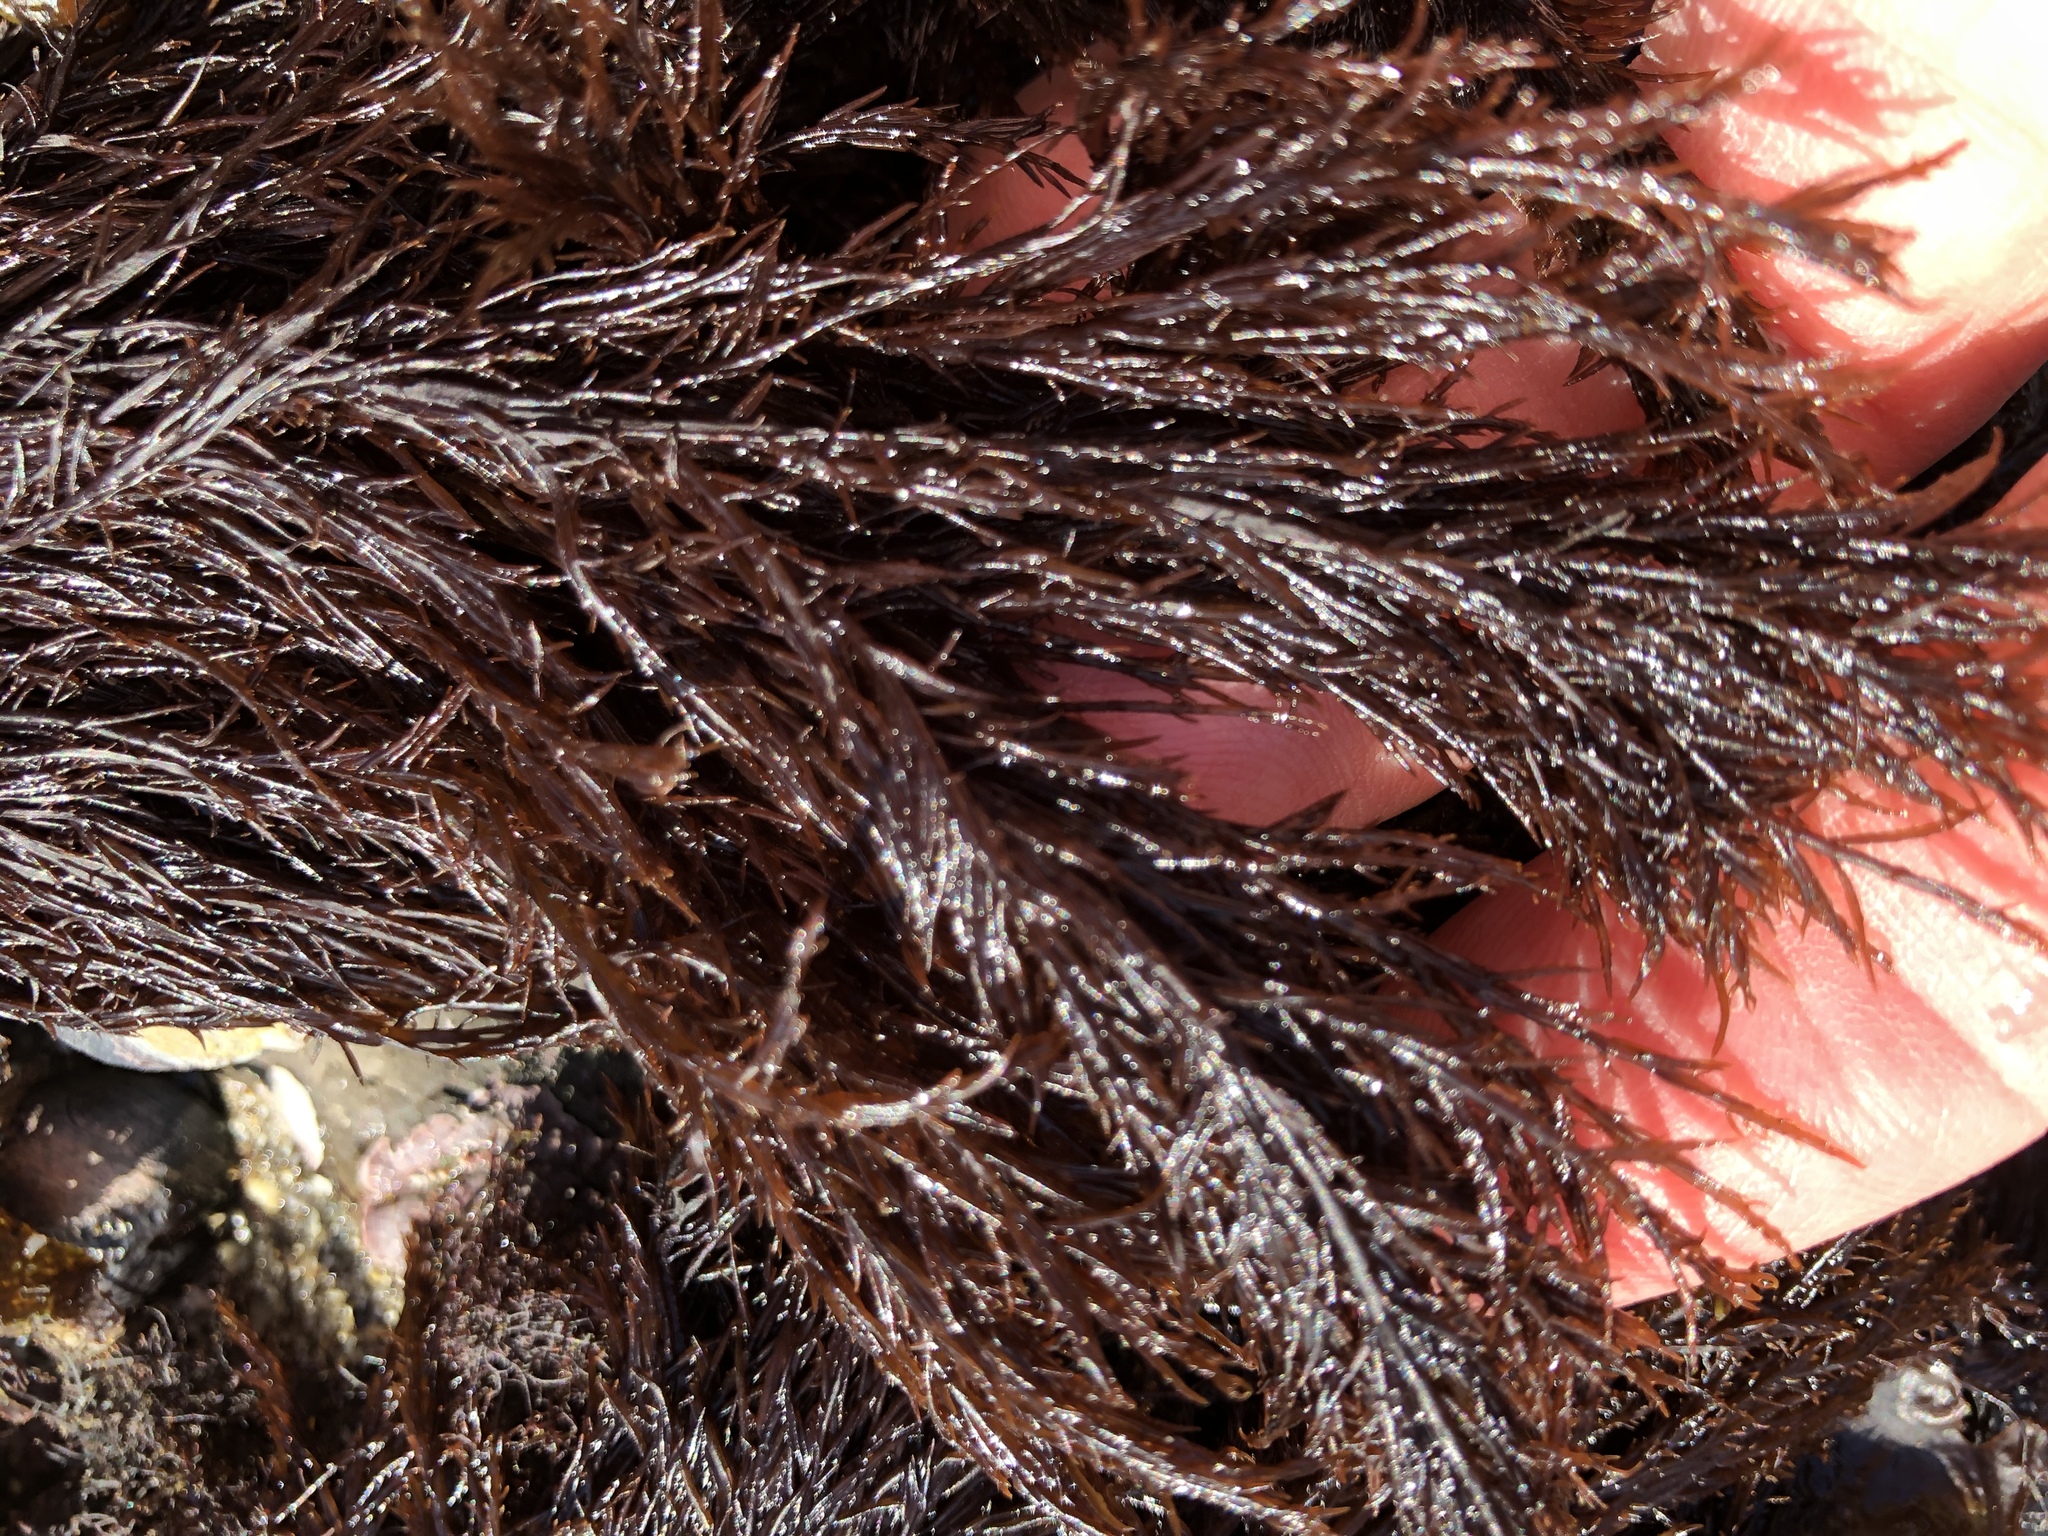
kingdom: Plantae
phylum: Rhodophyta
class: Florideophyceae
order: Gigartinales
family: Dumontiaceae
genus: Cryptosiphonia
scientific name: Cryptosiphonia woodii
